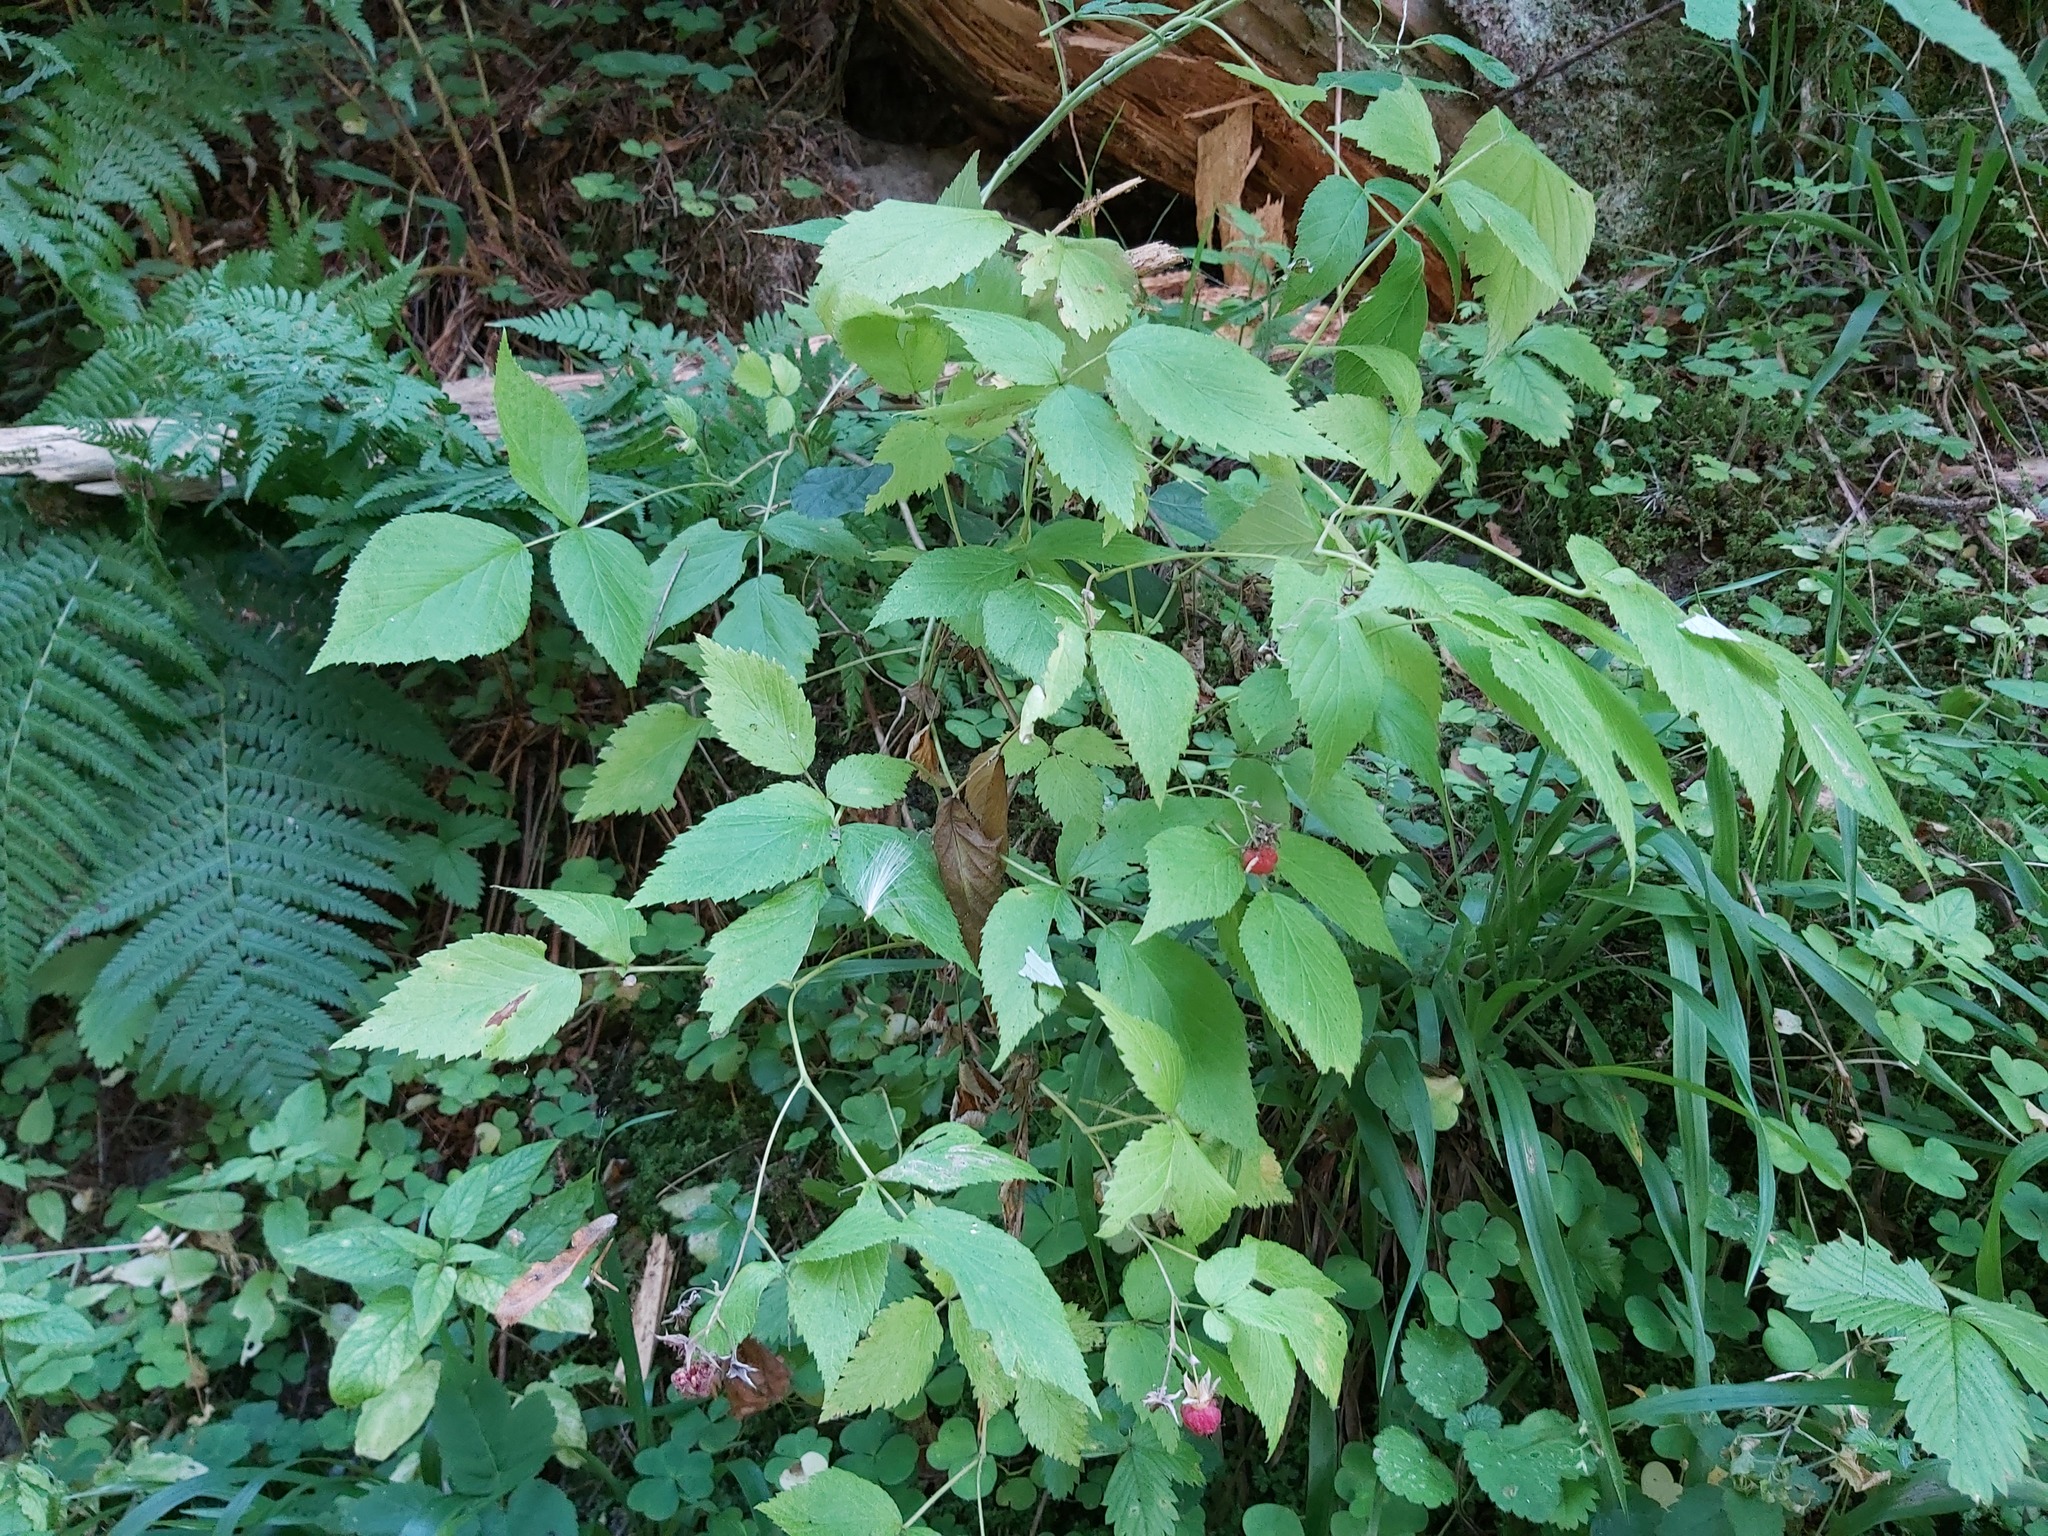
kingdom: Plantae
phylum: Tracheophyta
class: Magnoliopsida
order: Rosales
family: Rosaceae
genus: Rubus
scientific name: Rubus idaeus
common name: Raspberry
